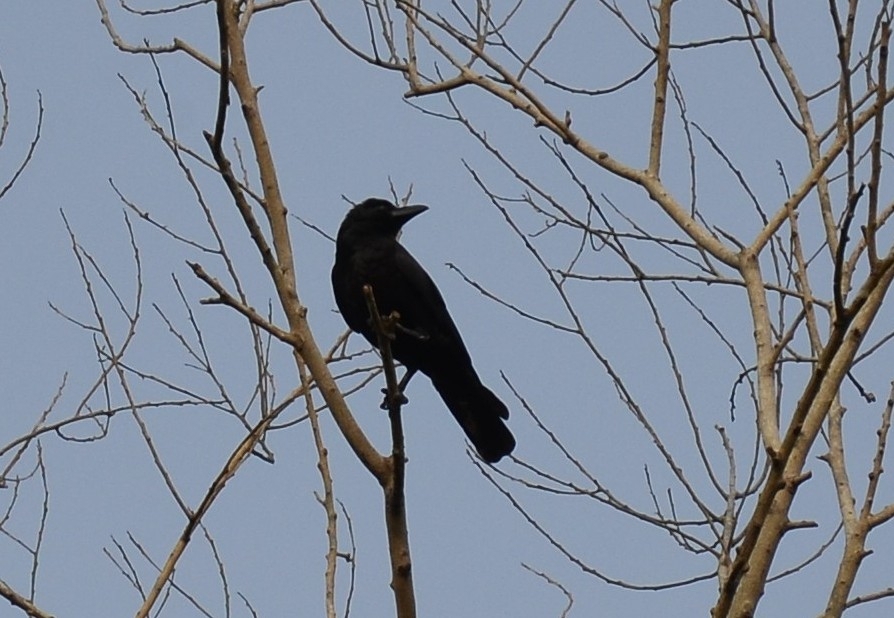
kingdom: Animalia
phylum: Chordata
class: Aves
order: Passeriformes
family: Corvidae
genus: Corvus
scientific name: Corvus macrorhynchos
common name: Large-billed crow
